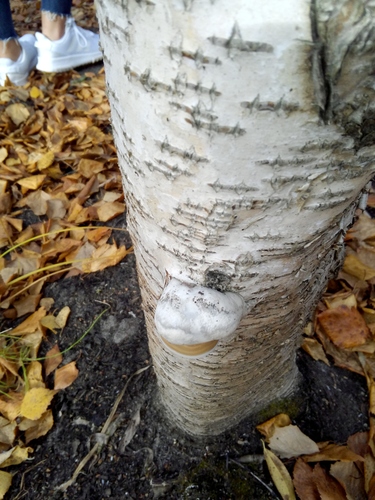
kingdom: Fungi
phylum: Basidiomycota
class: Agaricomycetes
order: Polyporales
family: Polyporaceae
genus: Fomes
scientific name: Fomes fomentarius
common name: Hoof fungus
